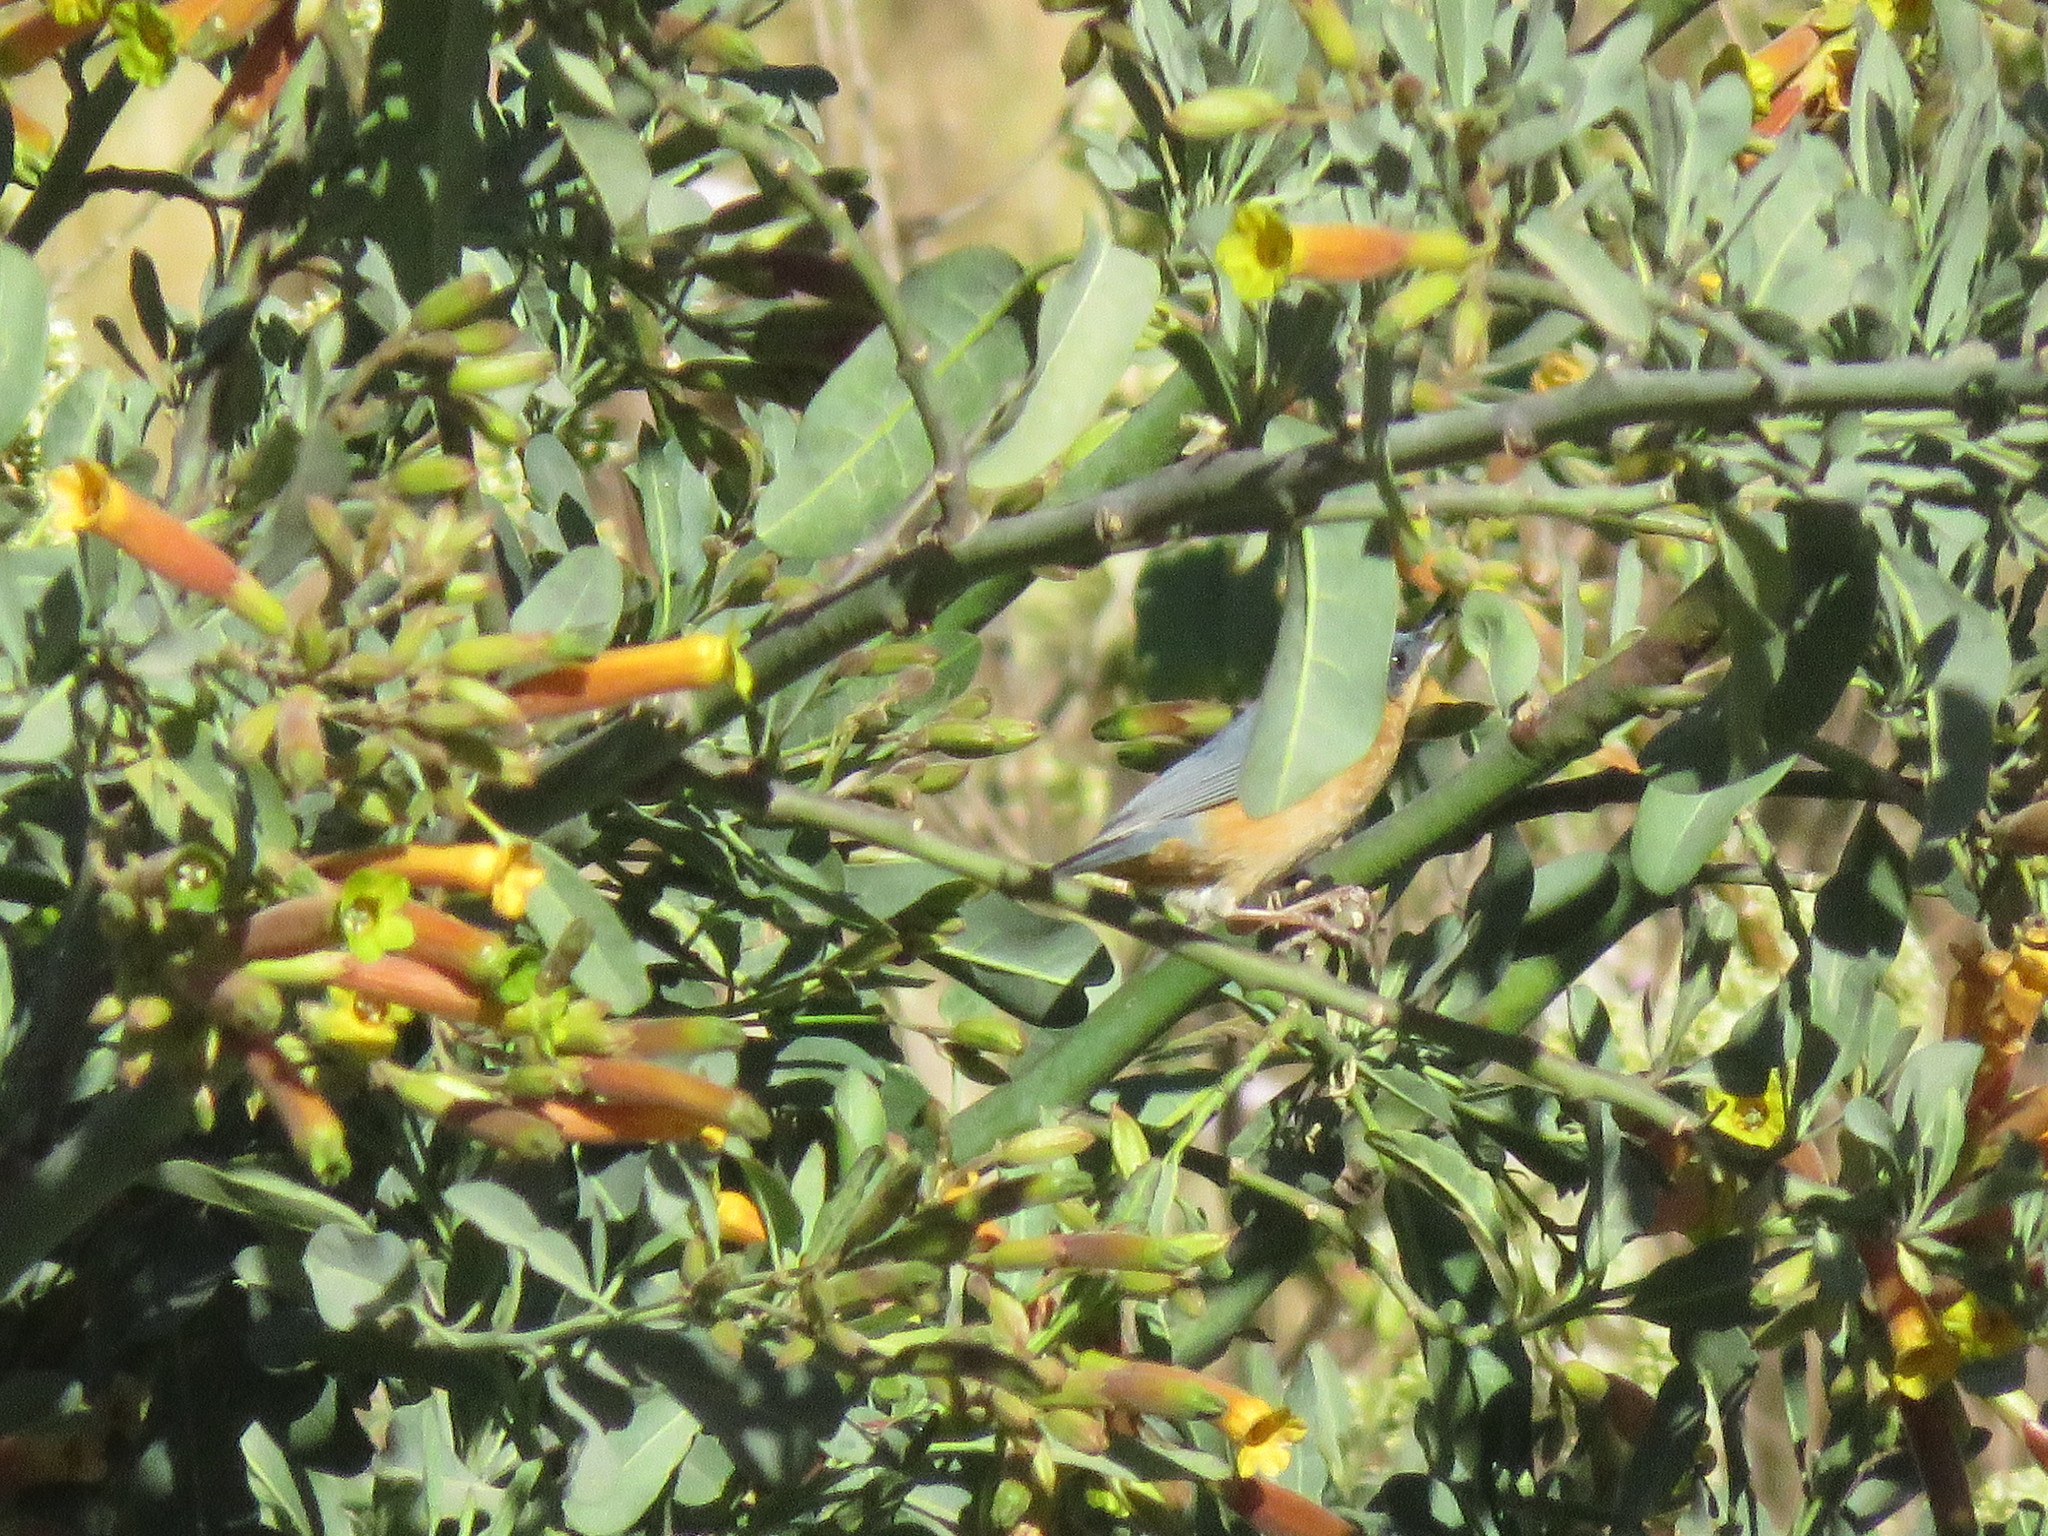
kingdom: Animalia
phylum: Chordata
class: Aves
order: Passeriformes
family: Thraupidae
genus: Diglossa
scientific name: Diglossa sittoides
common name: Rusty flowerpiercer
